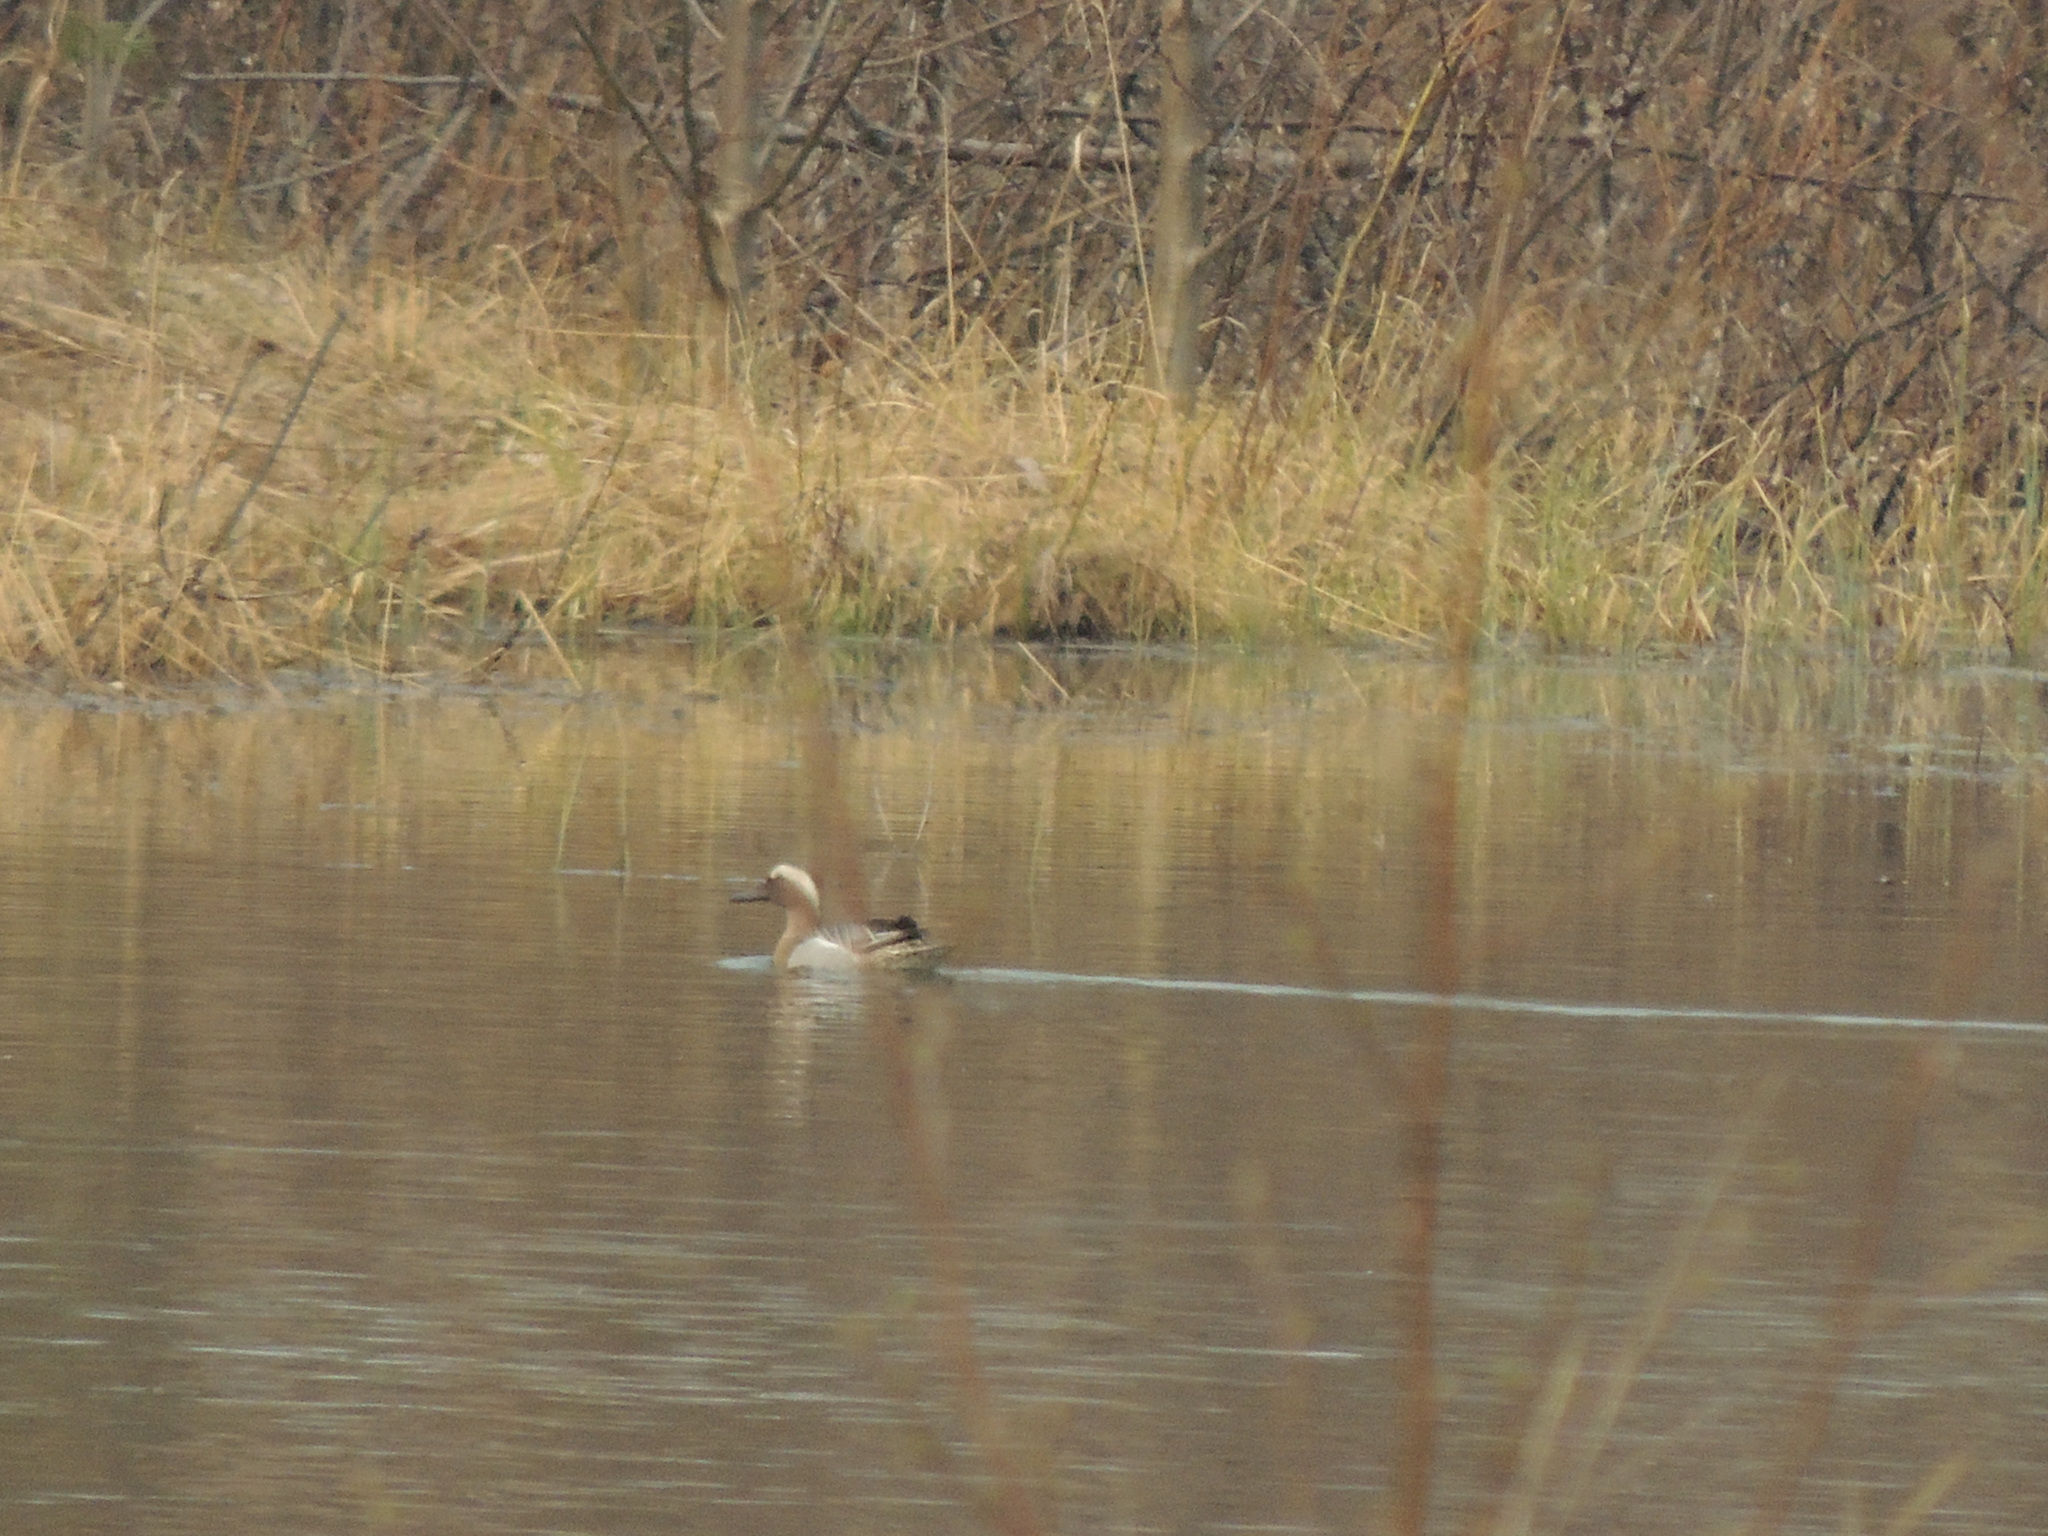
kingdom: Animalia
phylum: Chordata
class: Aves
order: Anseriformes
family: Anatidae
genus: Spatula
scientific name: Spatula querquedula
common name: Garganey
